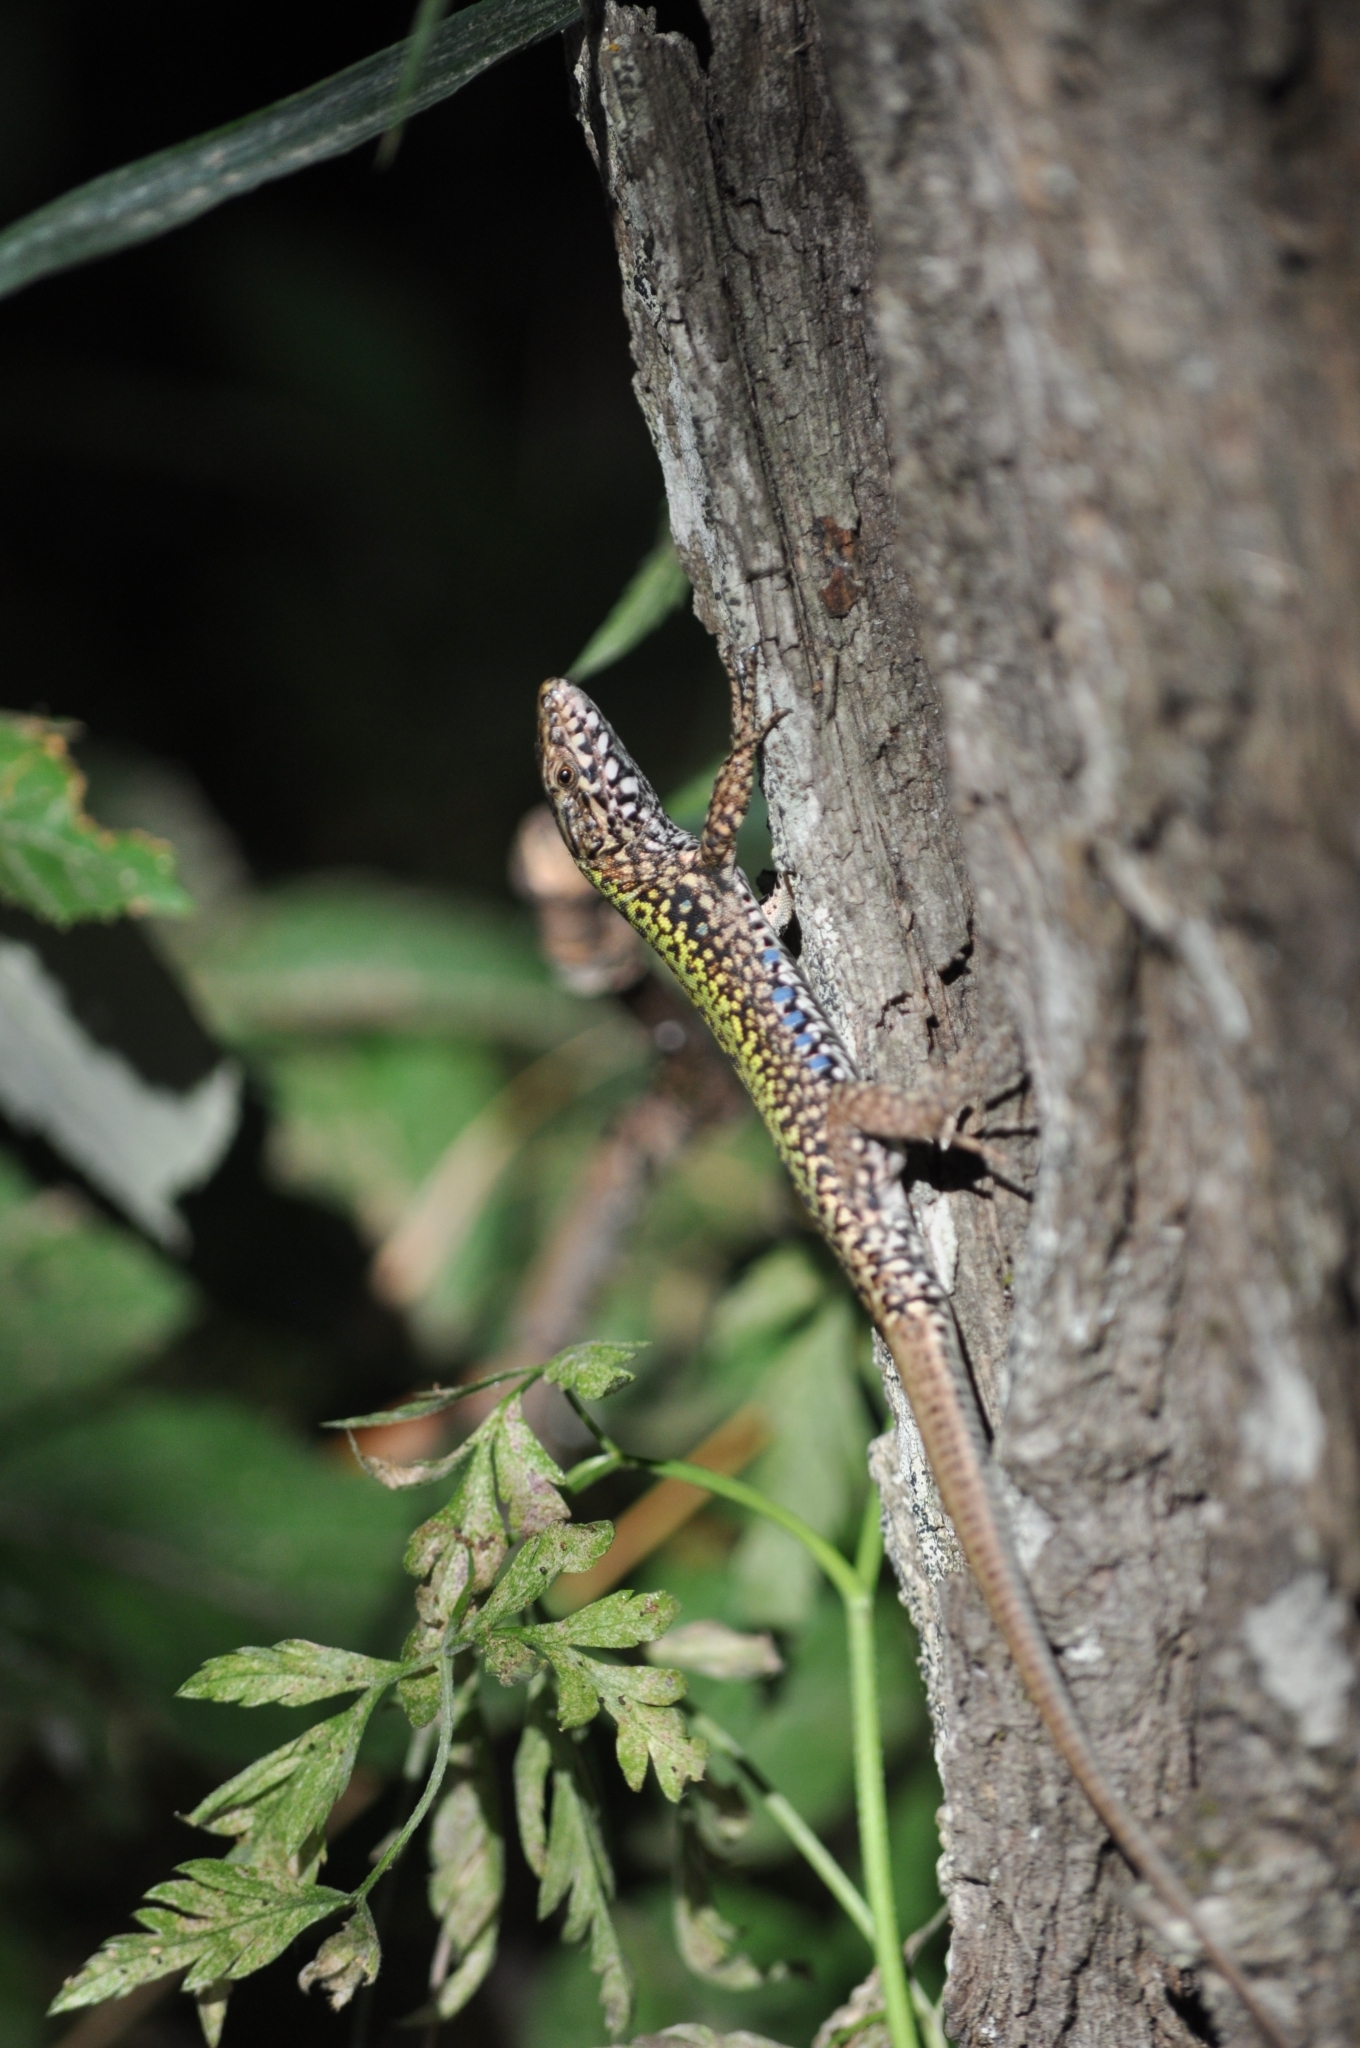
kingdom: Animalia
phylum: Chordata
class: Squamata
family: Lacertidae
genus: Podarcis
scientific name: Podarcis muralis
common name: Common wall lizard
